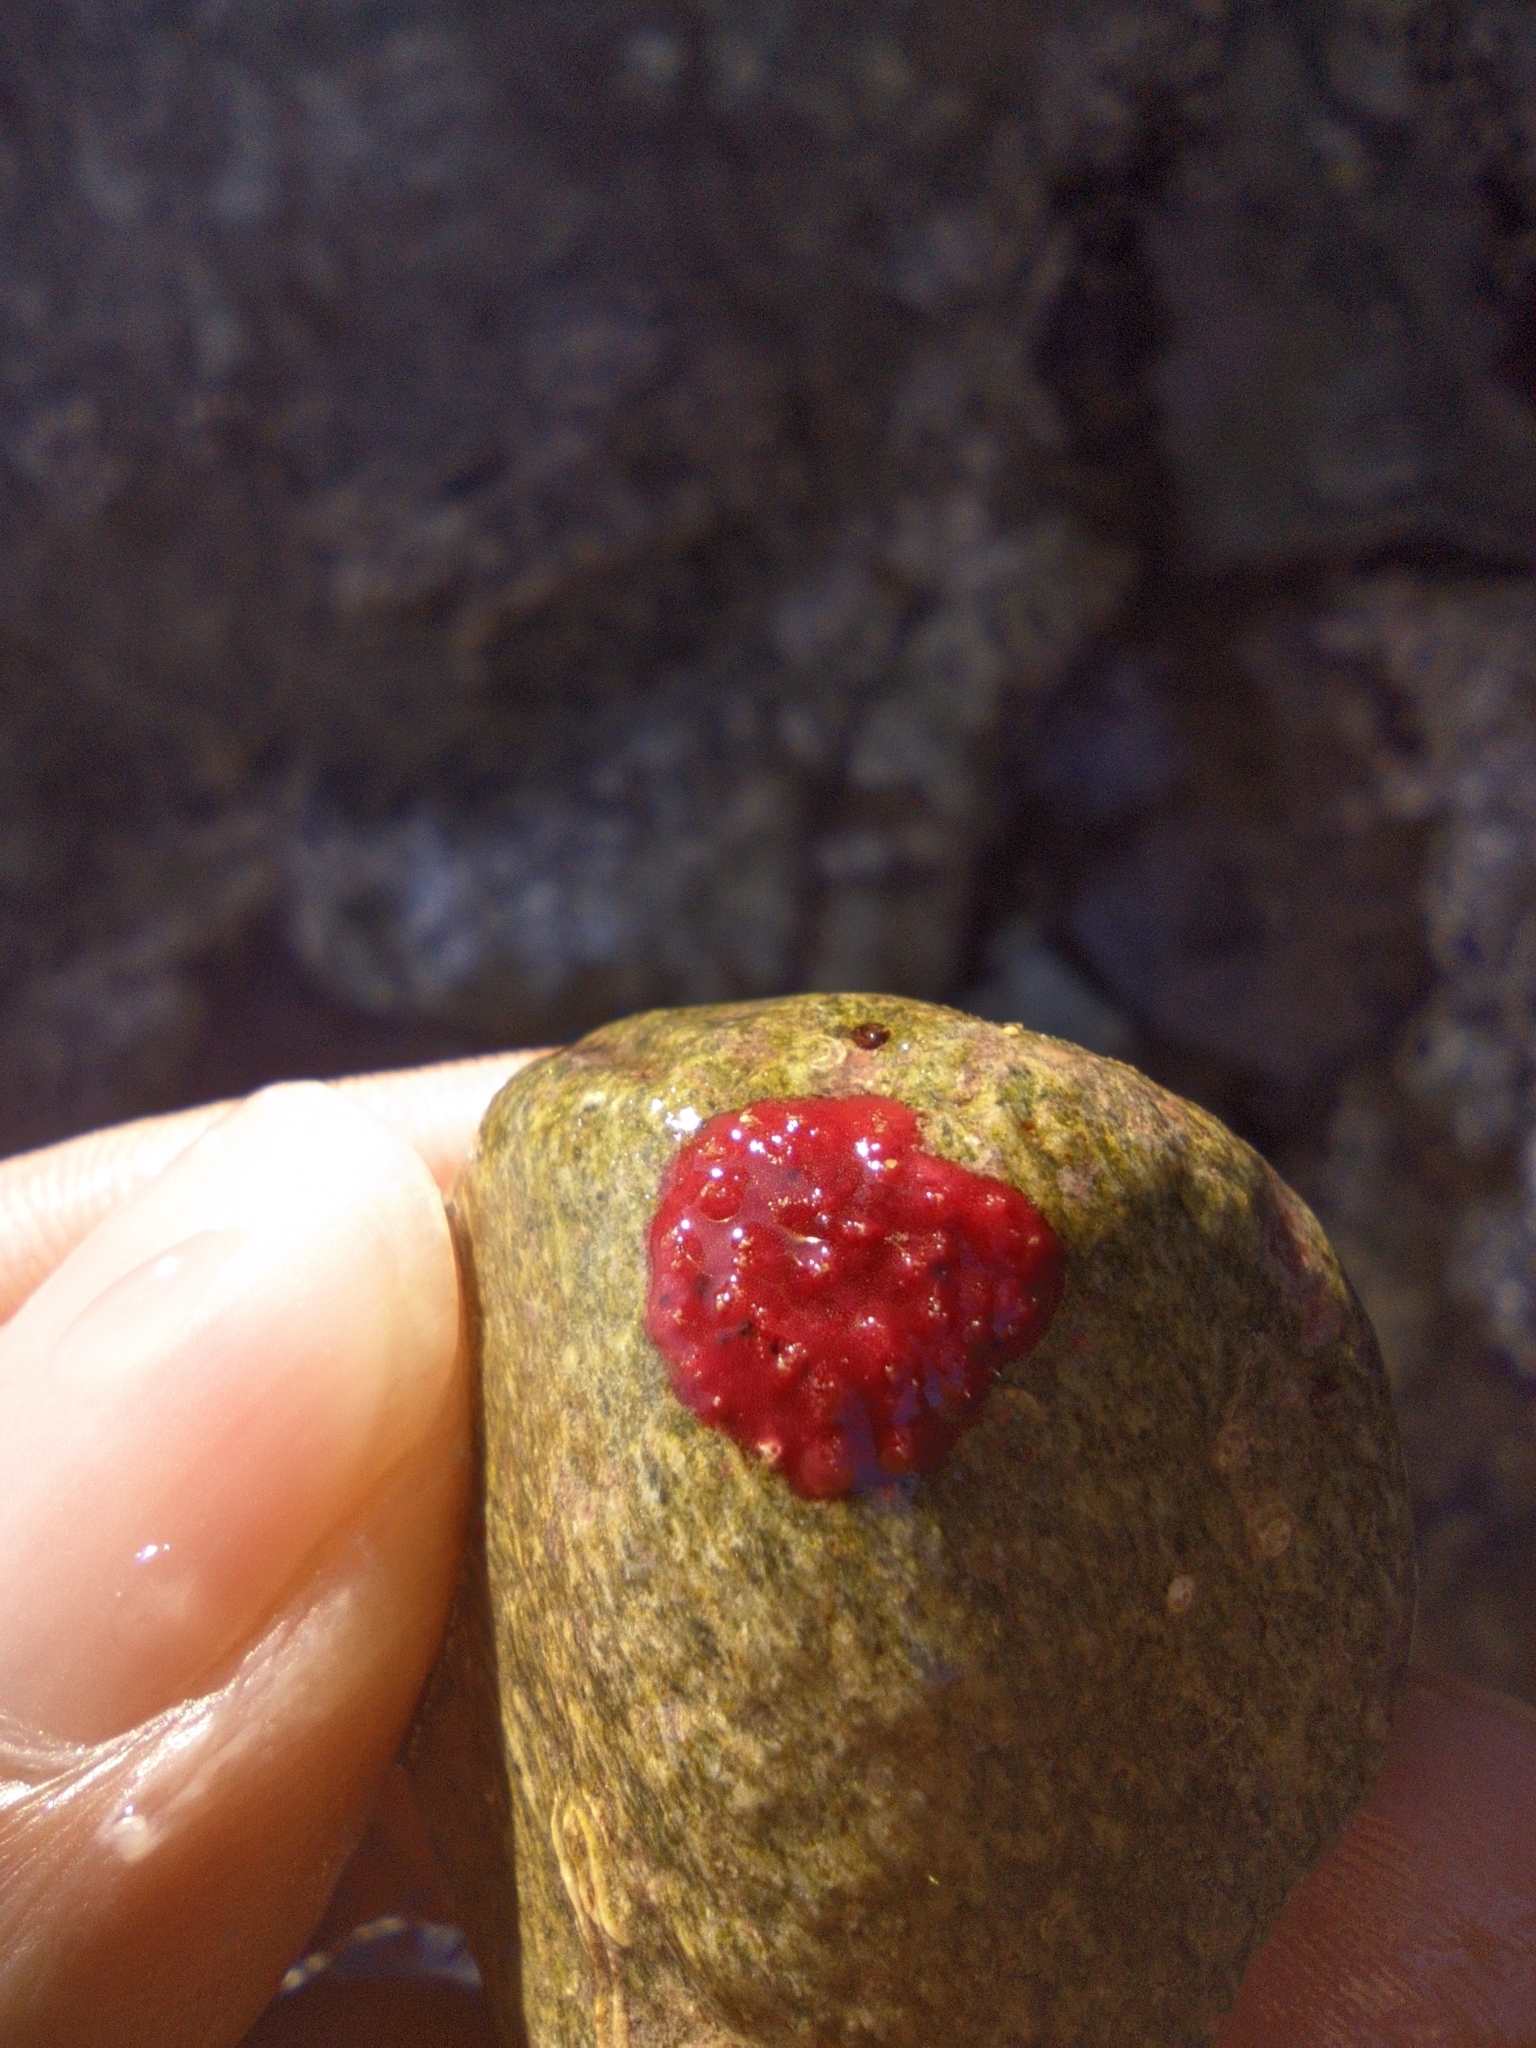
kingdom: Chromista
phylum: Foraminifera
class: Globothalamea
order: Rotaliida
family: Homotrematidae
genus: Homotrema
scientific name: Homotrema rubrum
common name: Red foram
